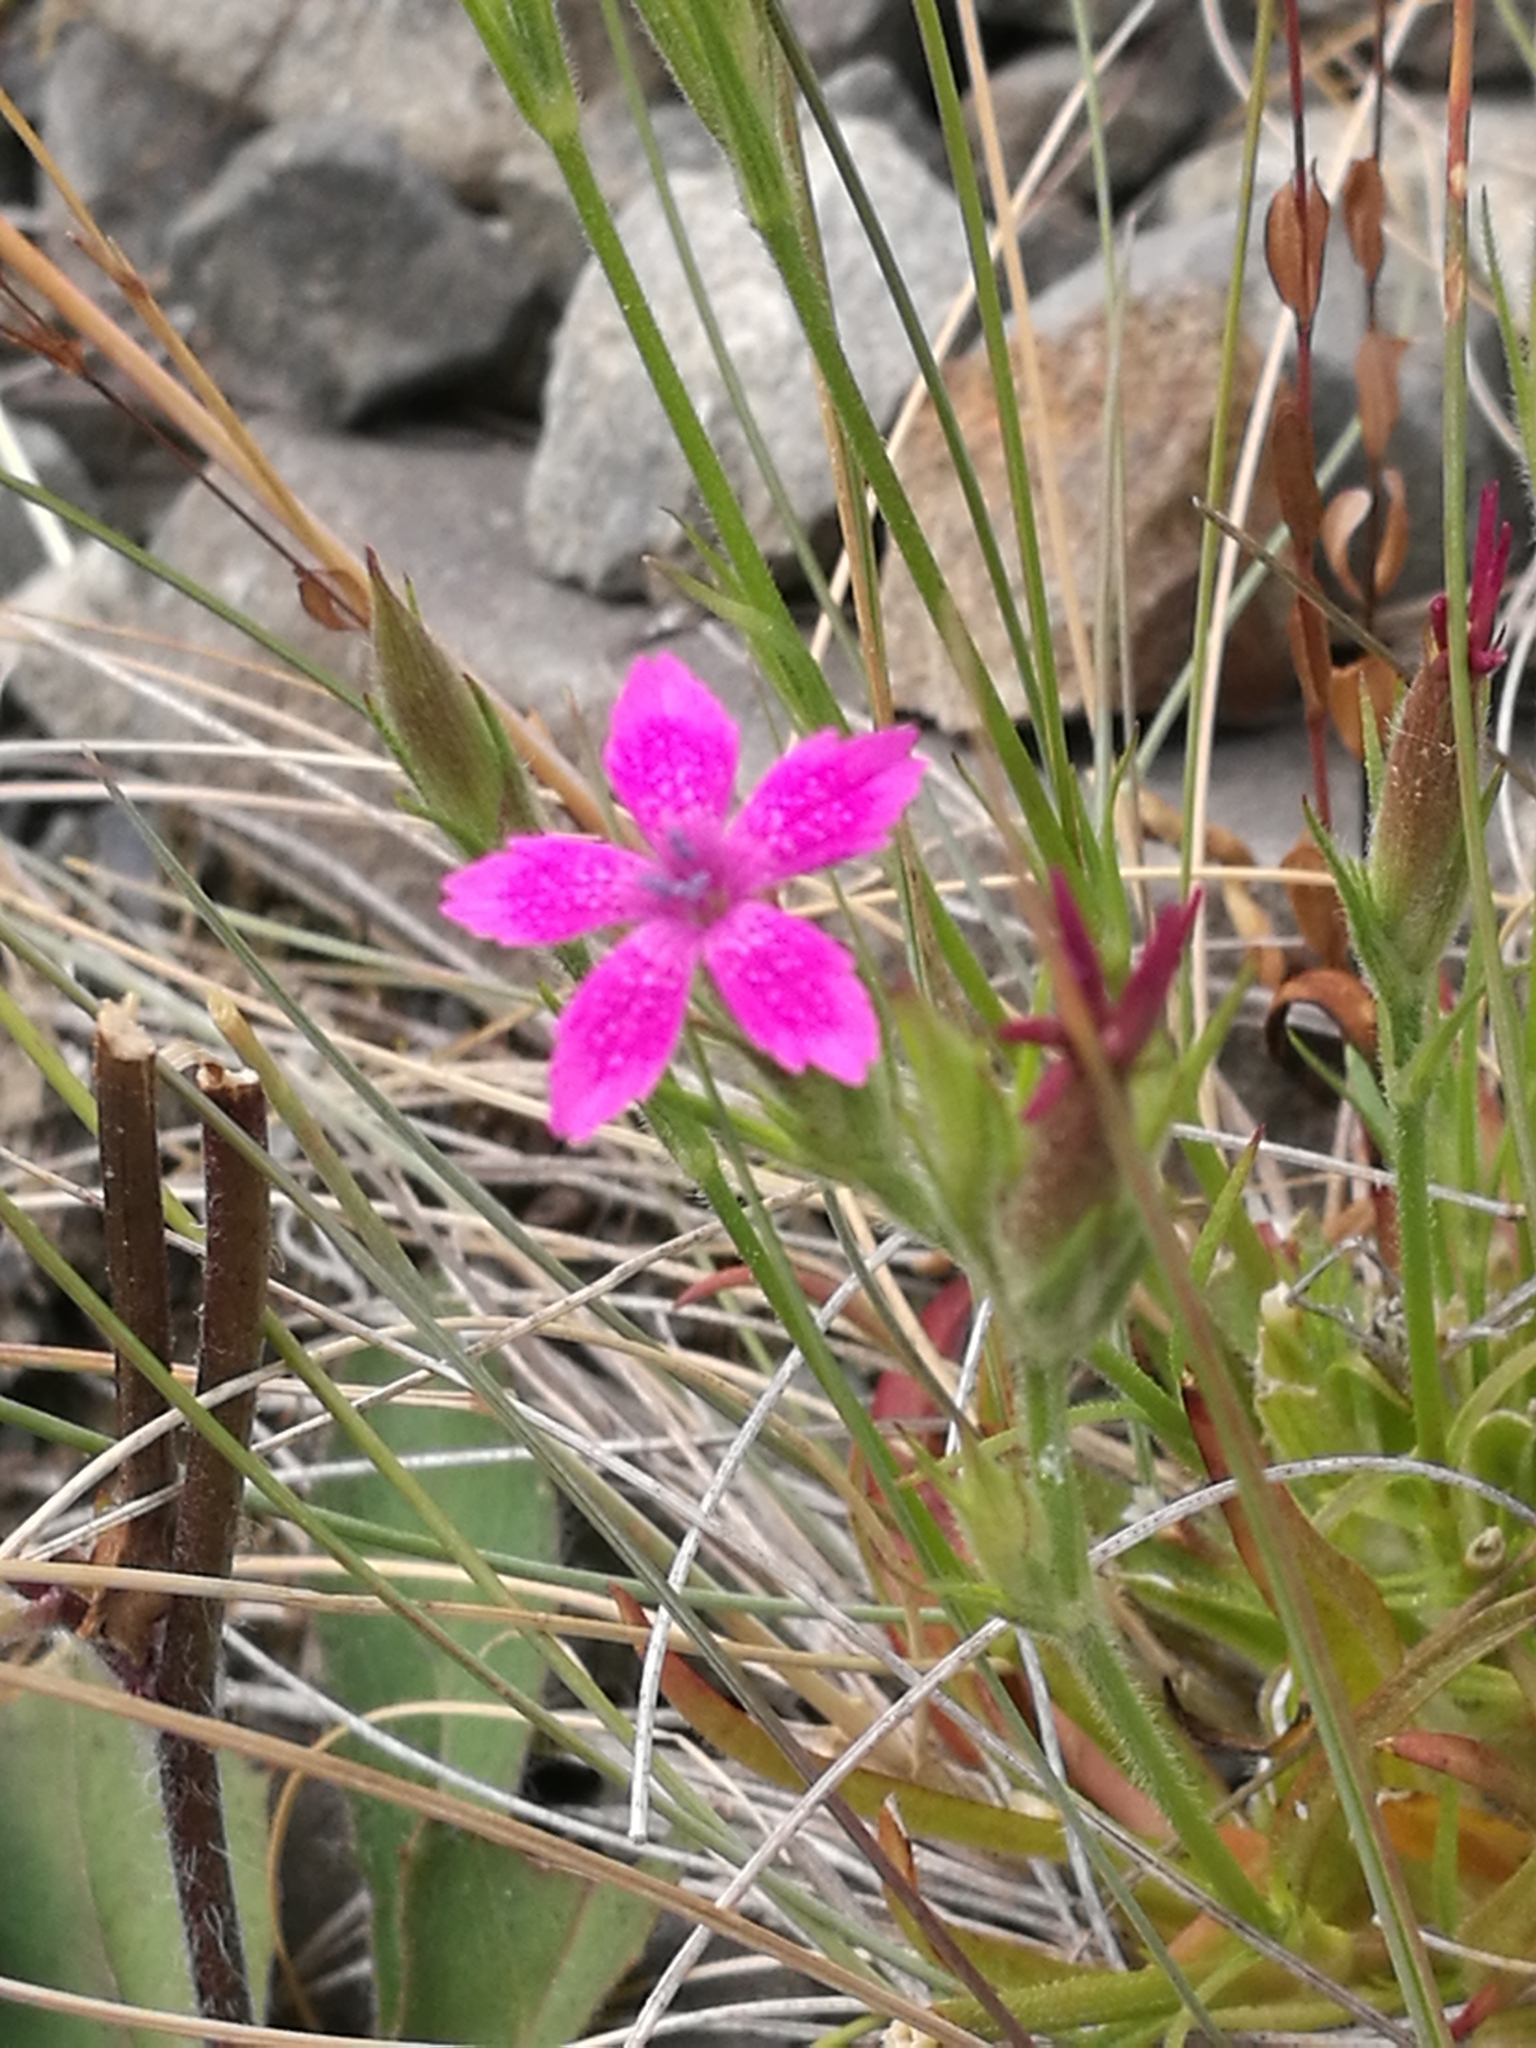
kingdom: Plantae
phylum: Tracheophyta
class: Magnoliopsida
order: Caryophyllales
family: Caryophyllaceae
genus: Dianthus
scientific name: Dianthus armeria
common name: Deptford pink
